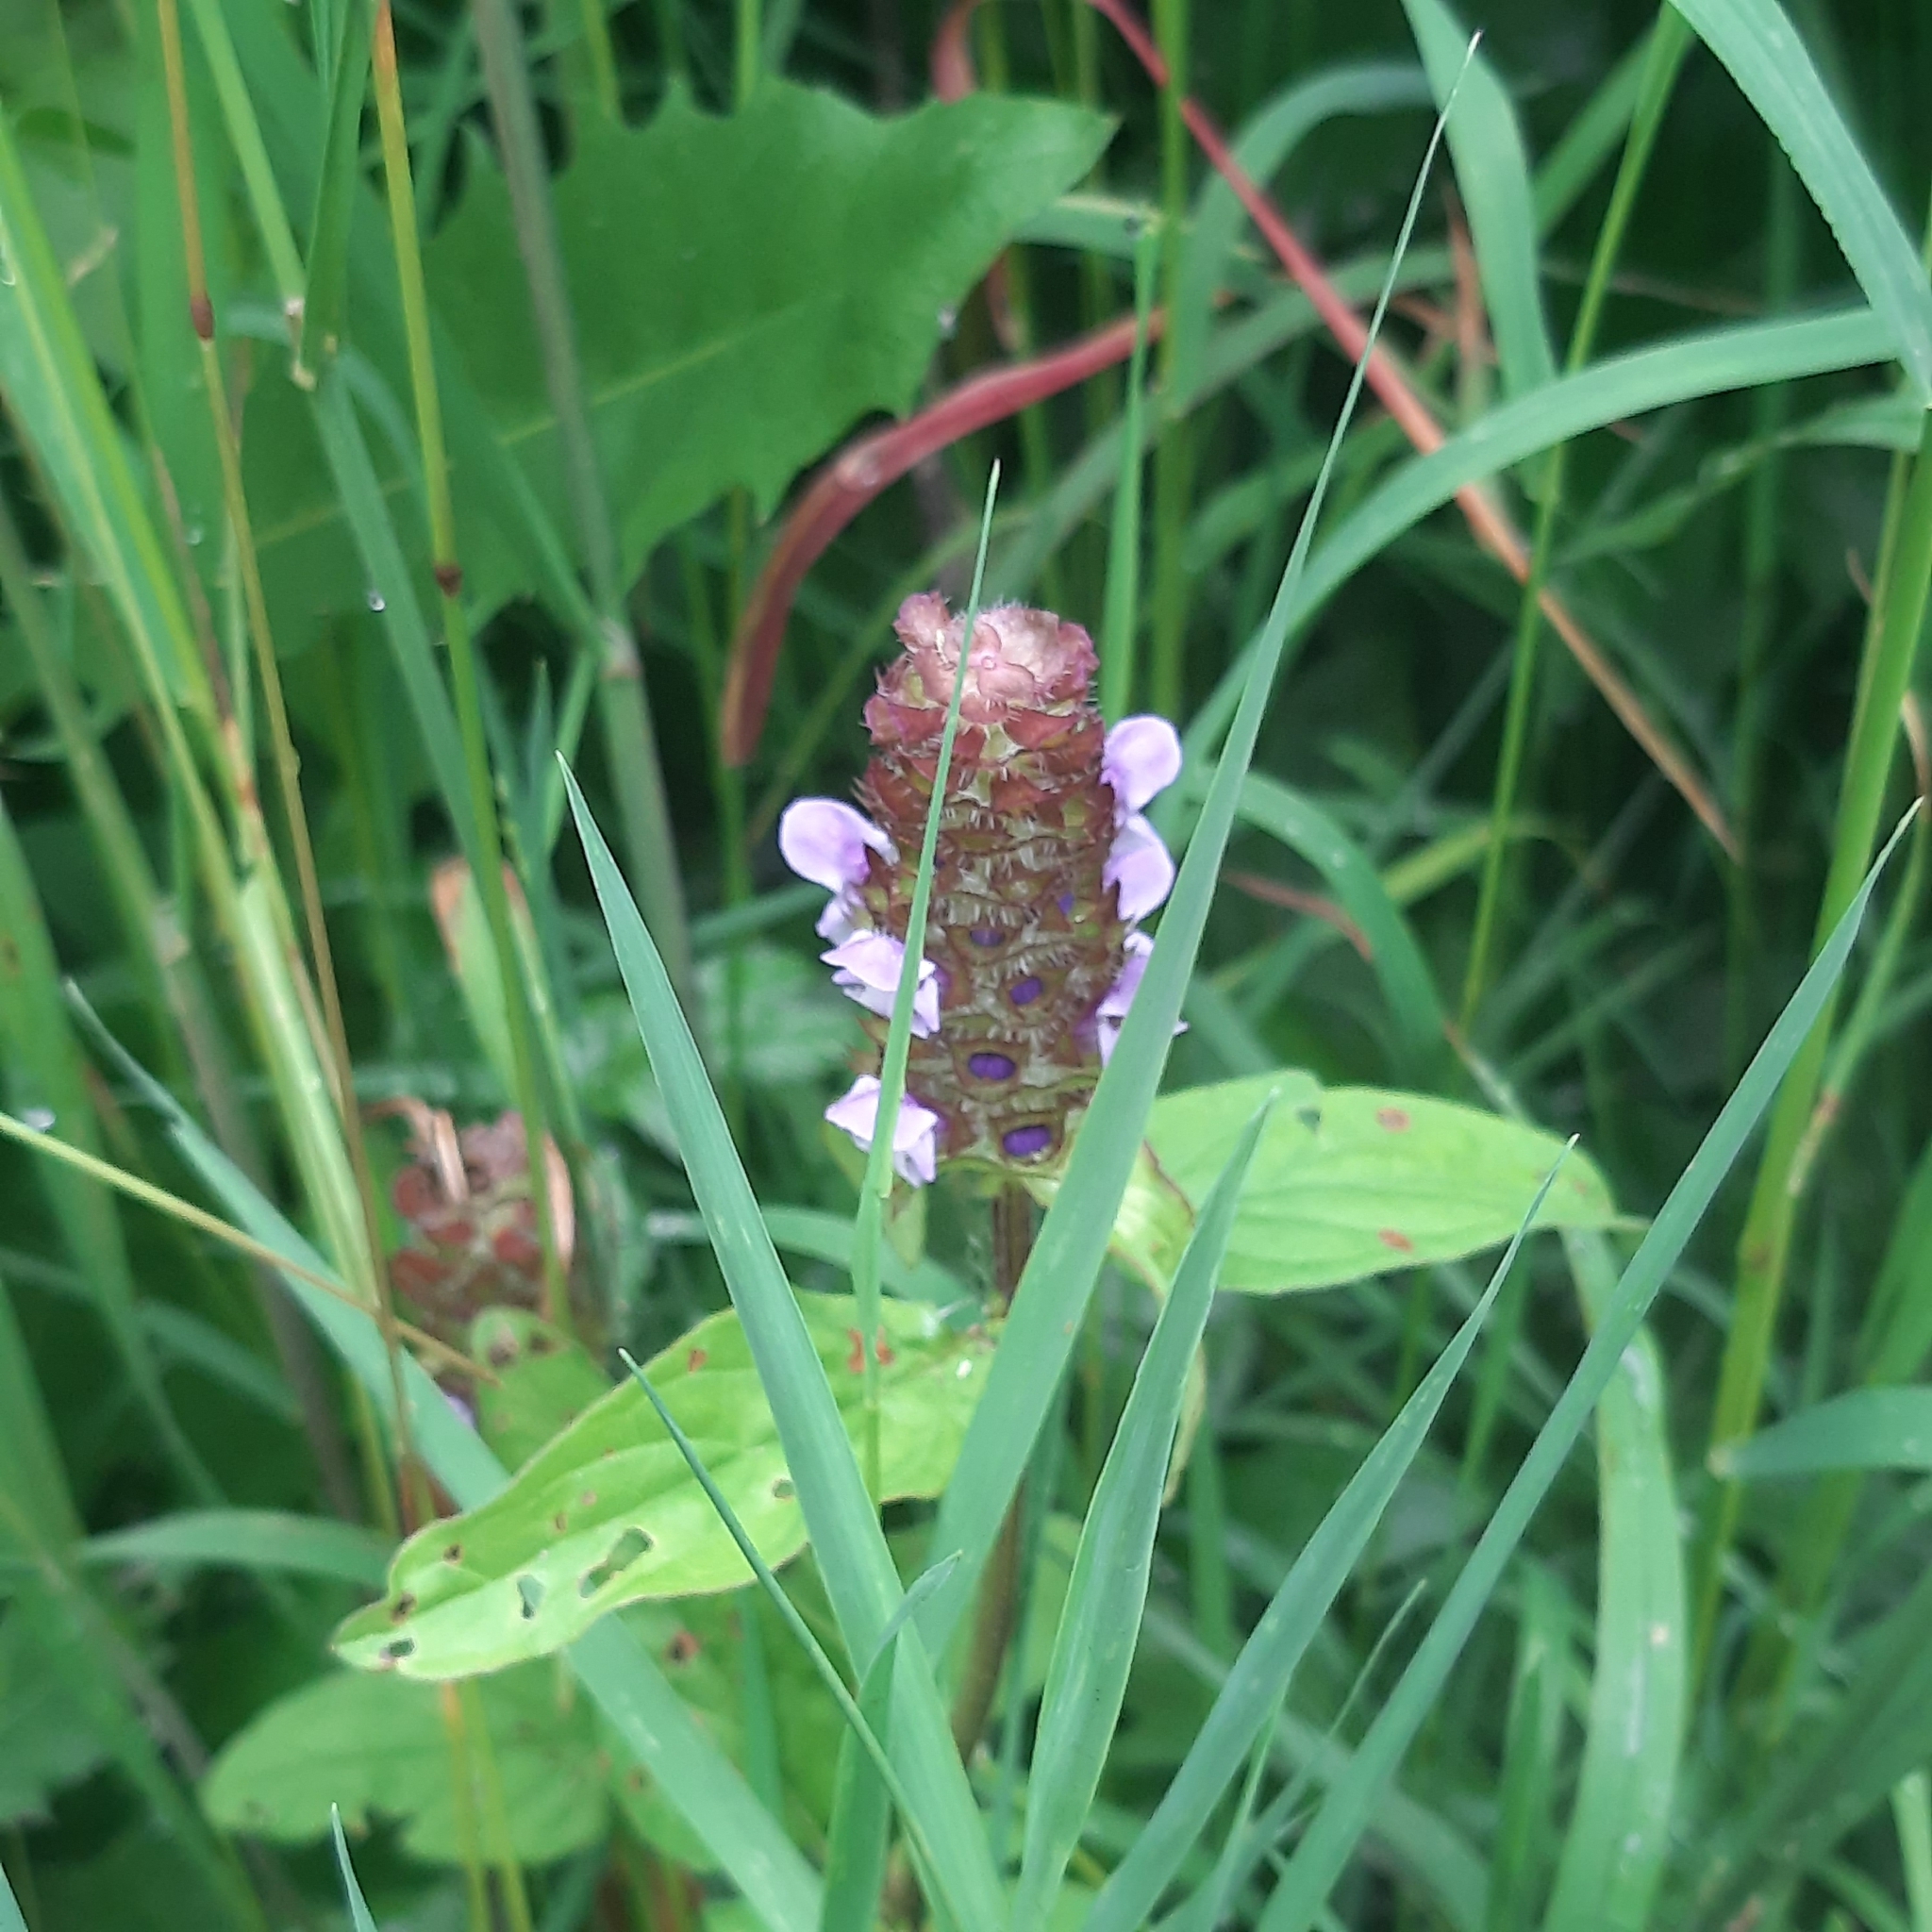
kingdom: Plantae
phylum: Tracheophyta
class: Magnoliopsida
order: Lamiales
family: Lamiaceae
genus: Prunella
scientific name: Prunella vulgaris
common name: Heal-all
